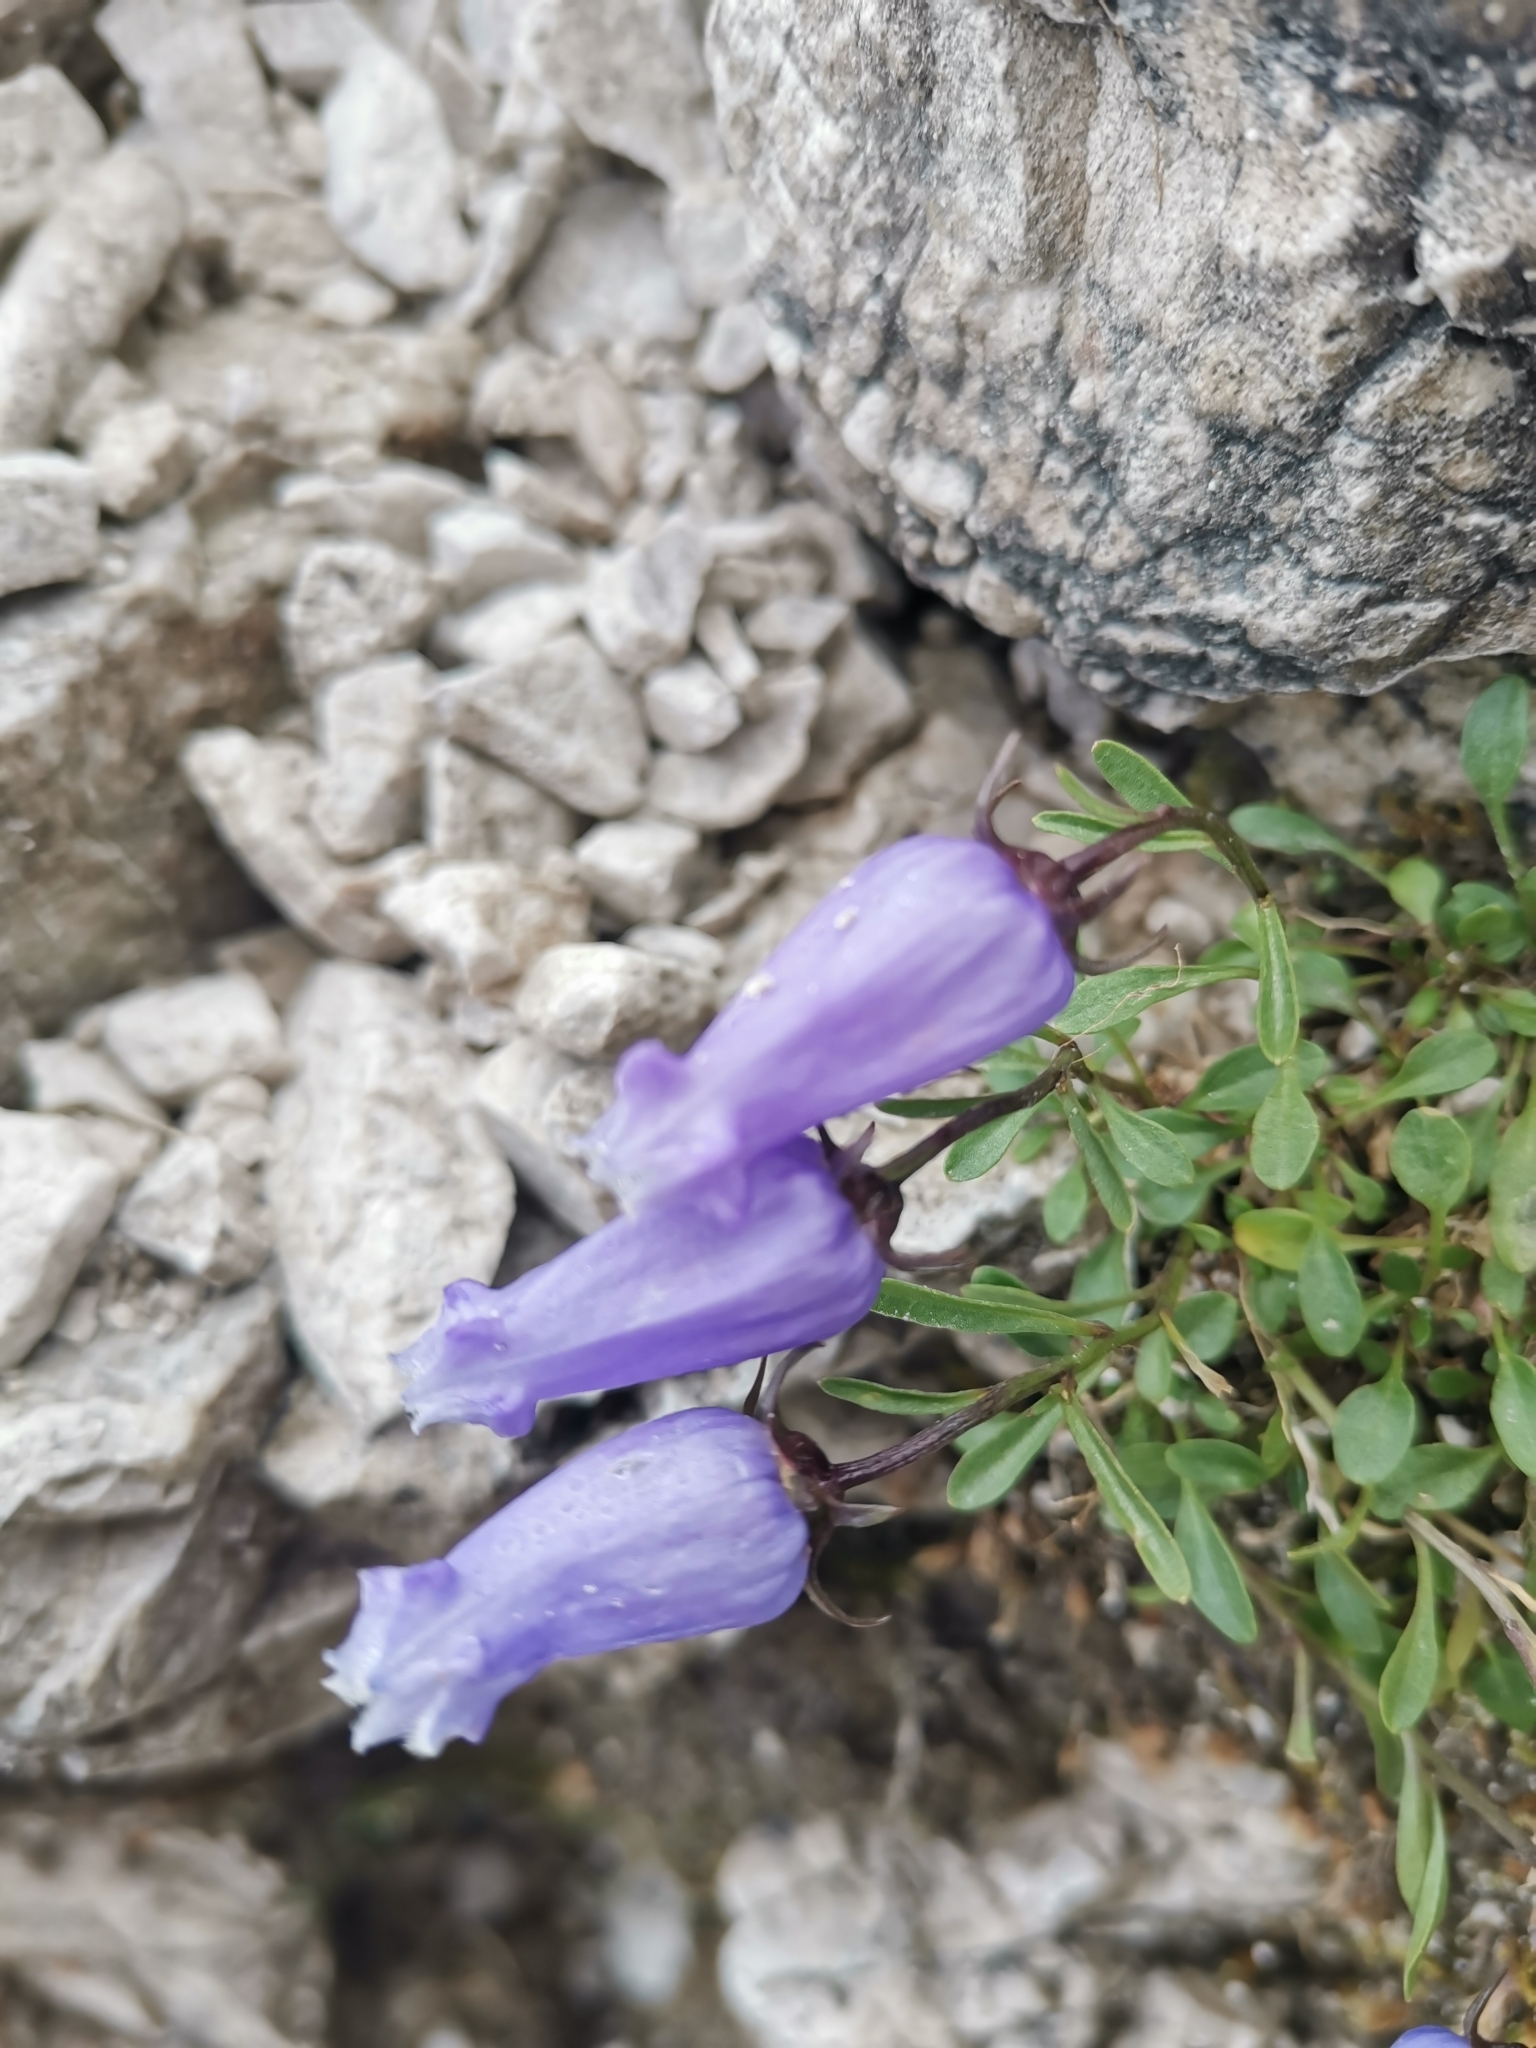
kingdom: Plantae
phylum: Tracheophyta
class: Magnoliopsida
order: Asterales
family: Campanulaceae
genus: Favratia
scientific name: Favratia zoysii
